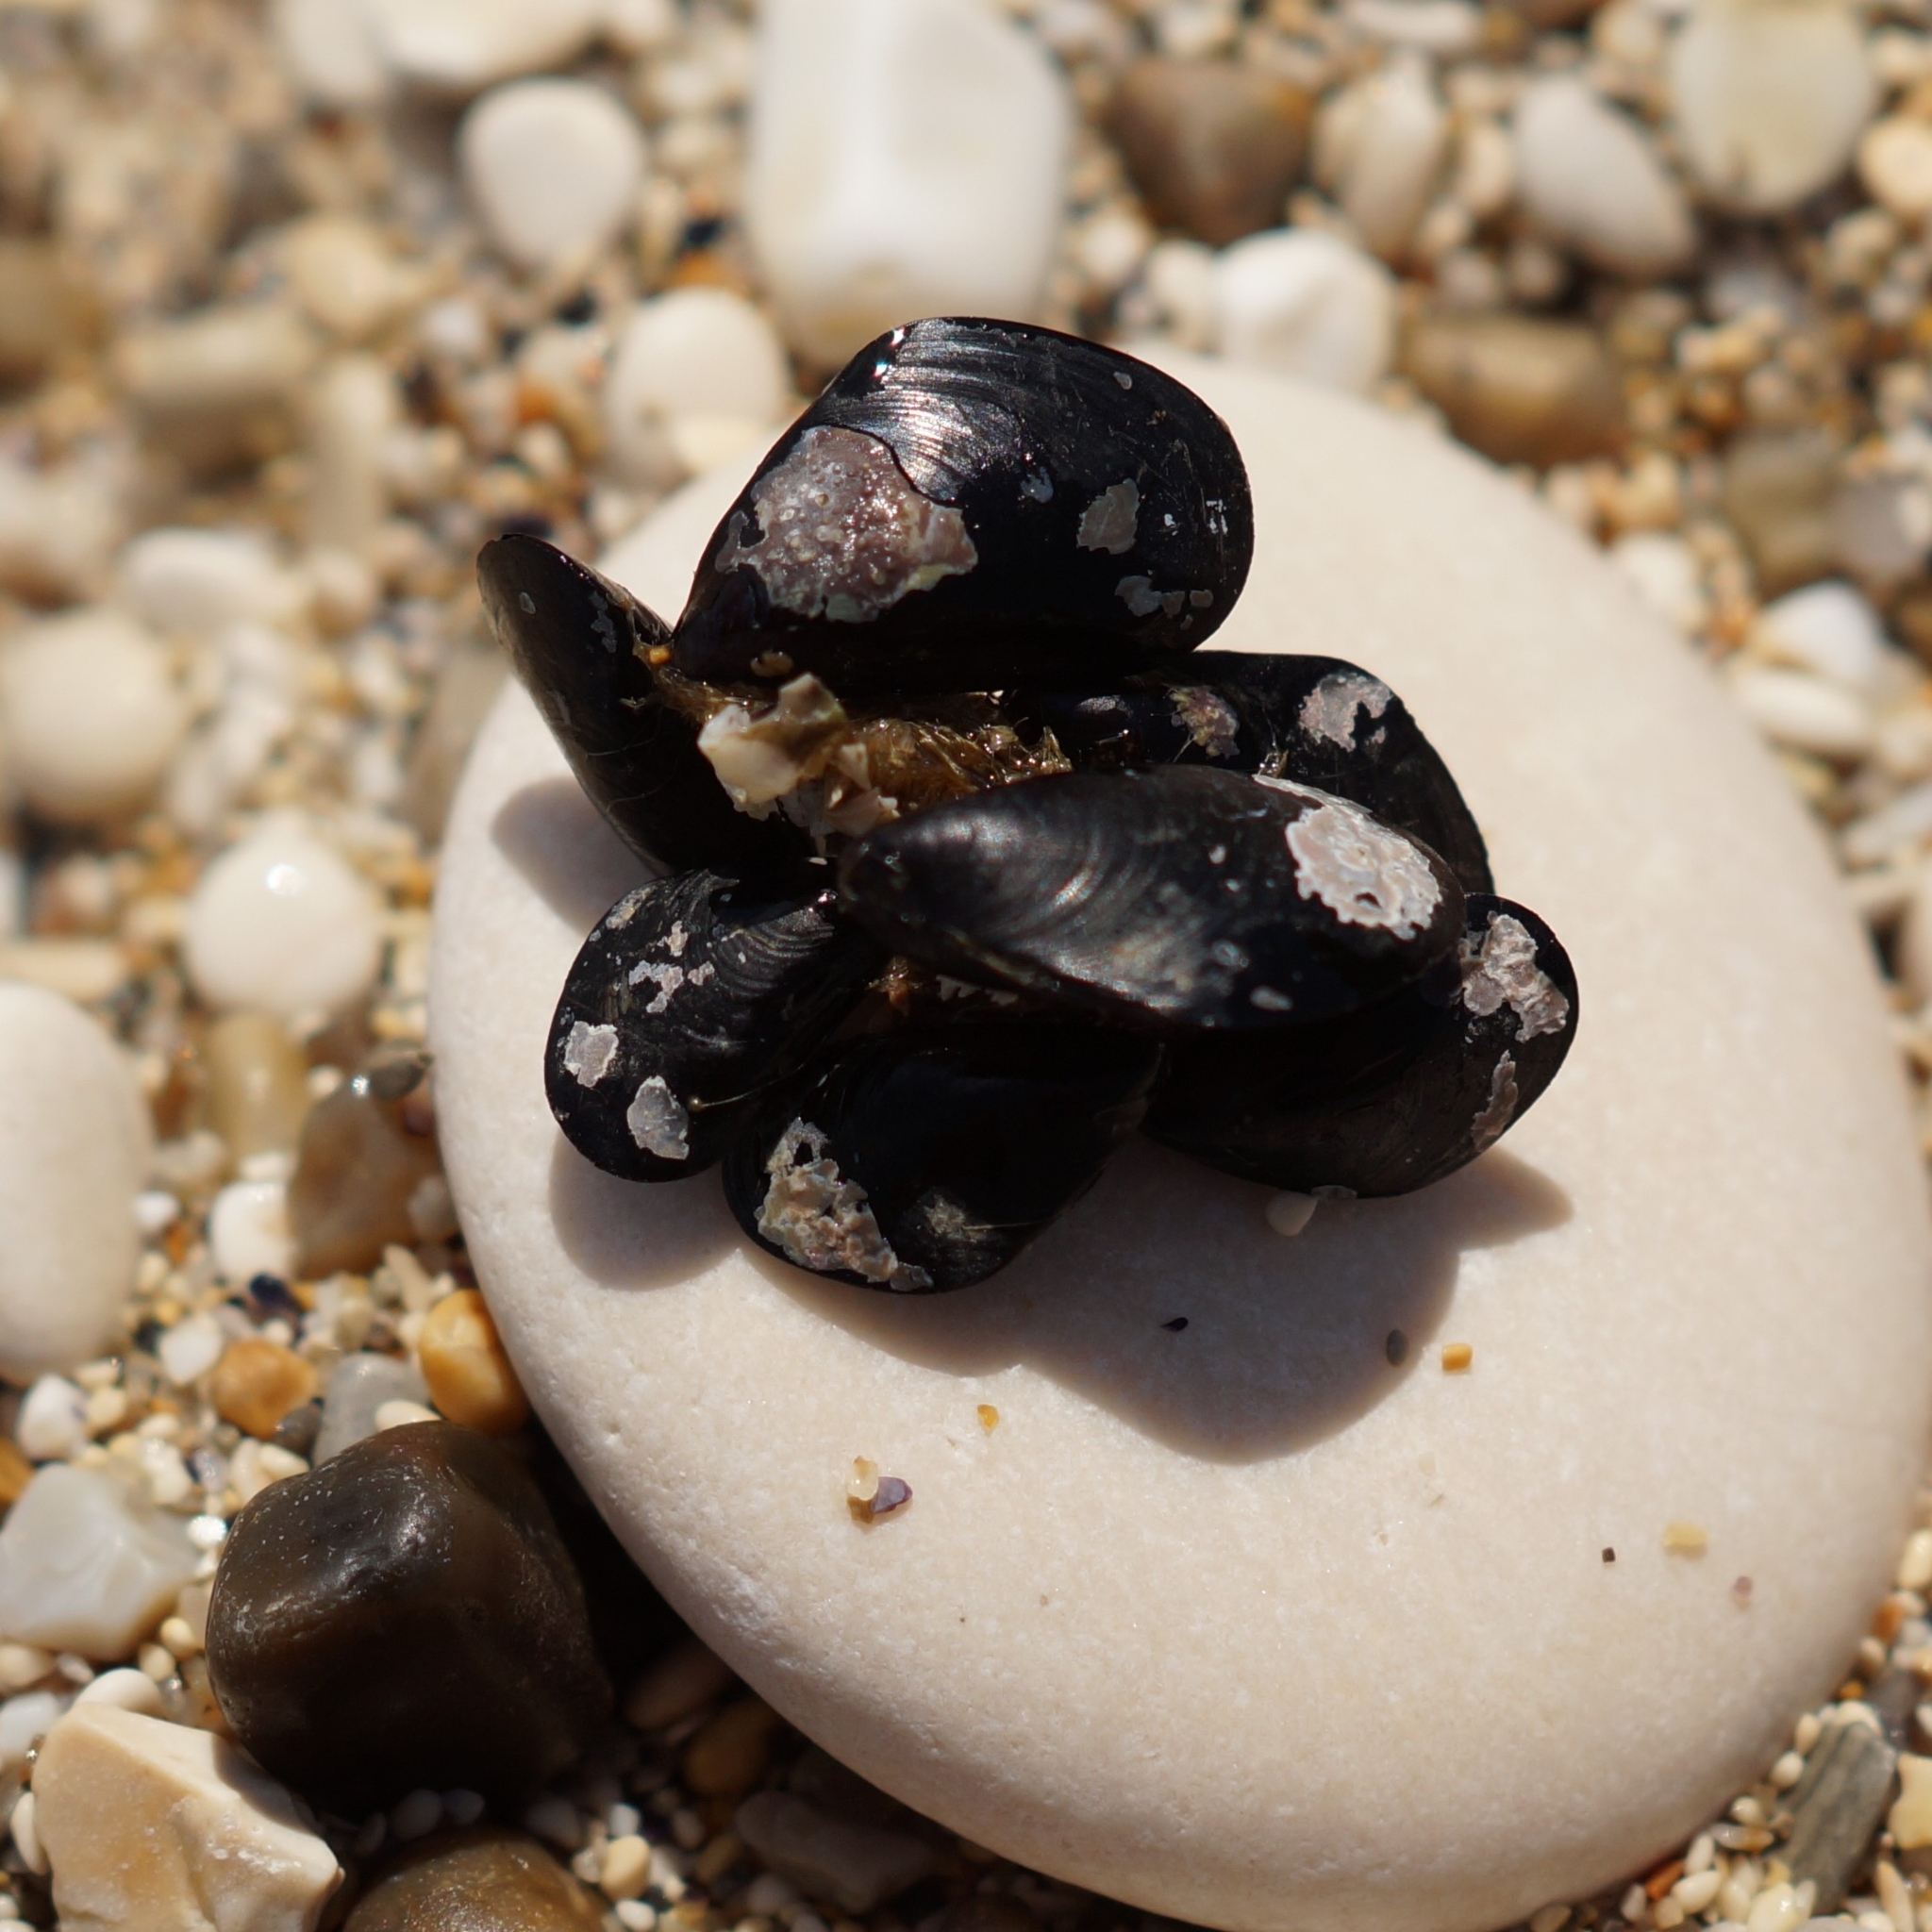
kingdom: Animalia
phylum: Mollusca
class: Bivalvia
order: Mytilida
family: Mytilidae
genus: Mytilus
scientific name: Mytilus galloprovincialis
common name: Mediterranean mussel
